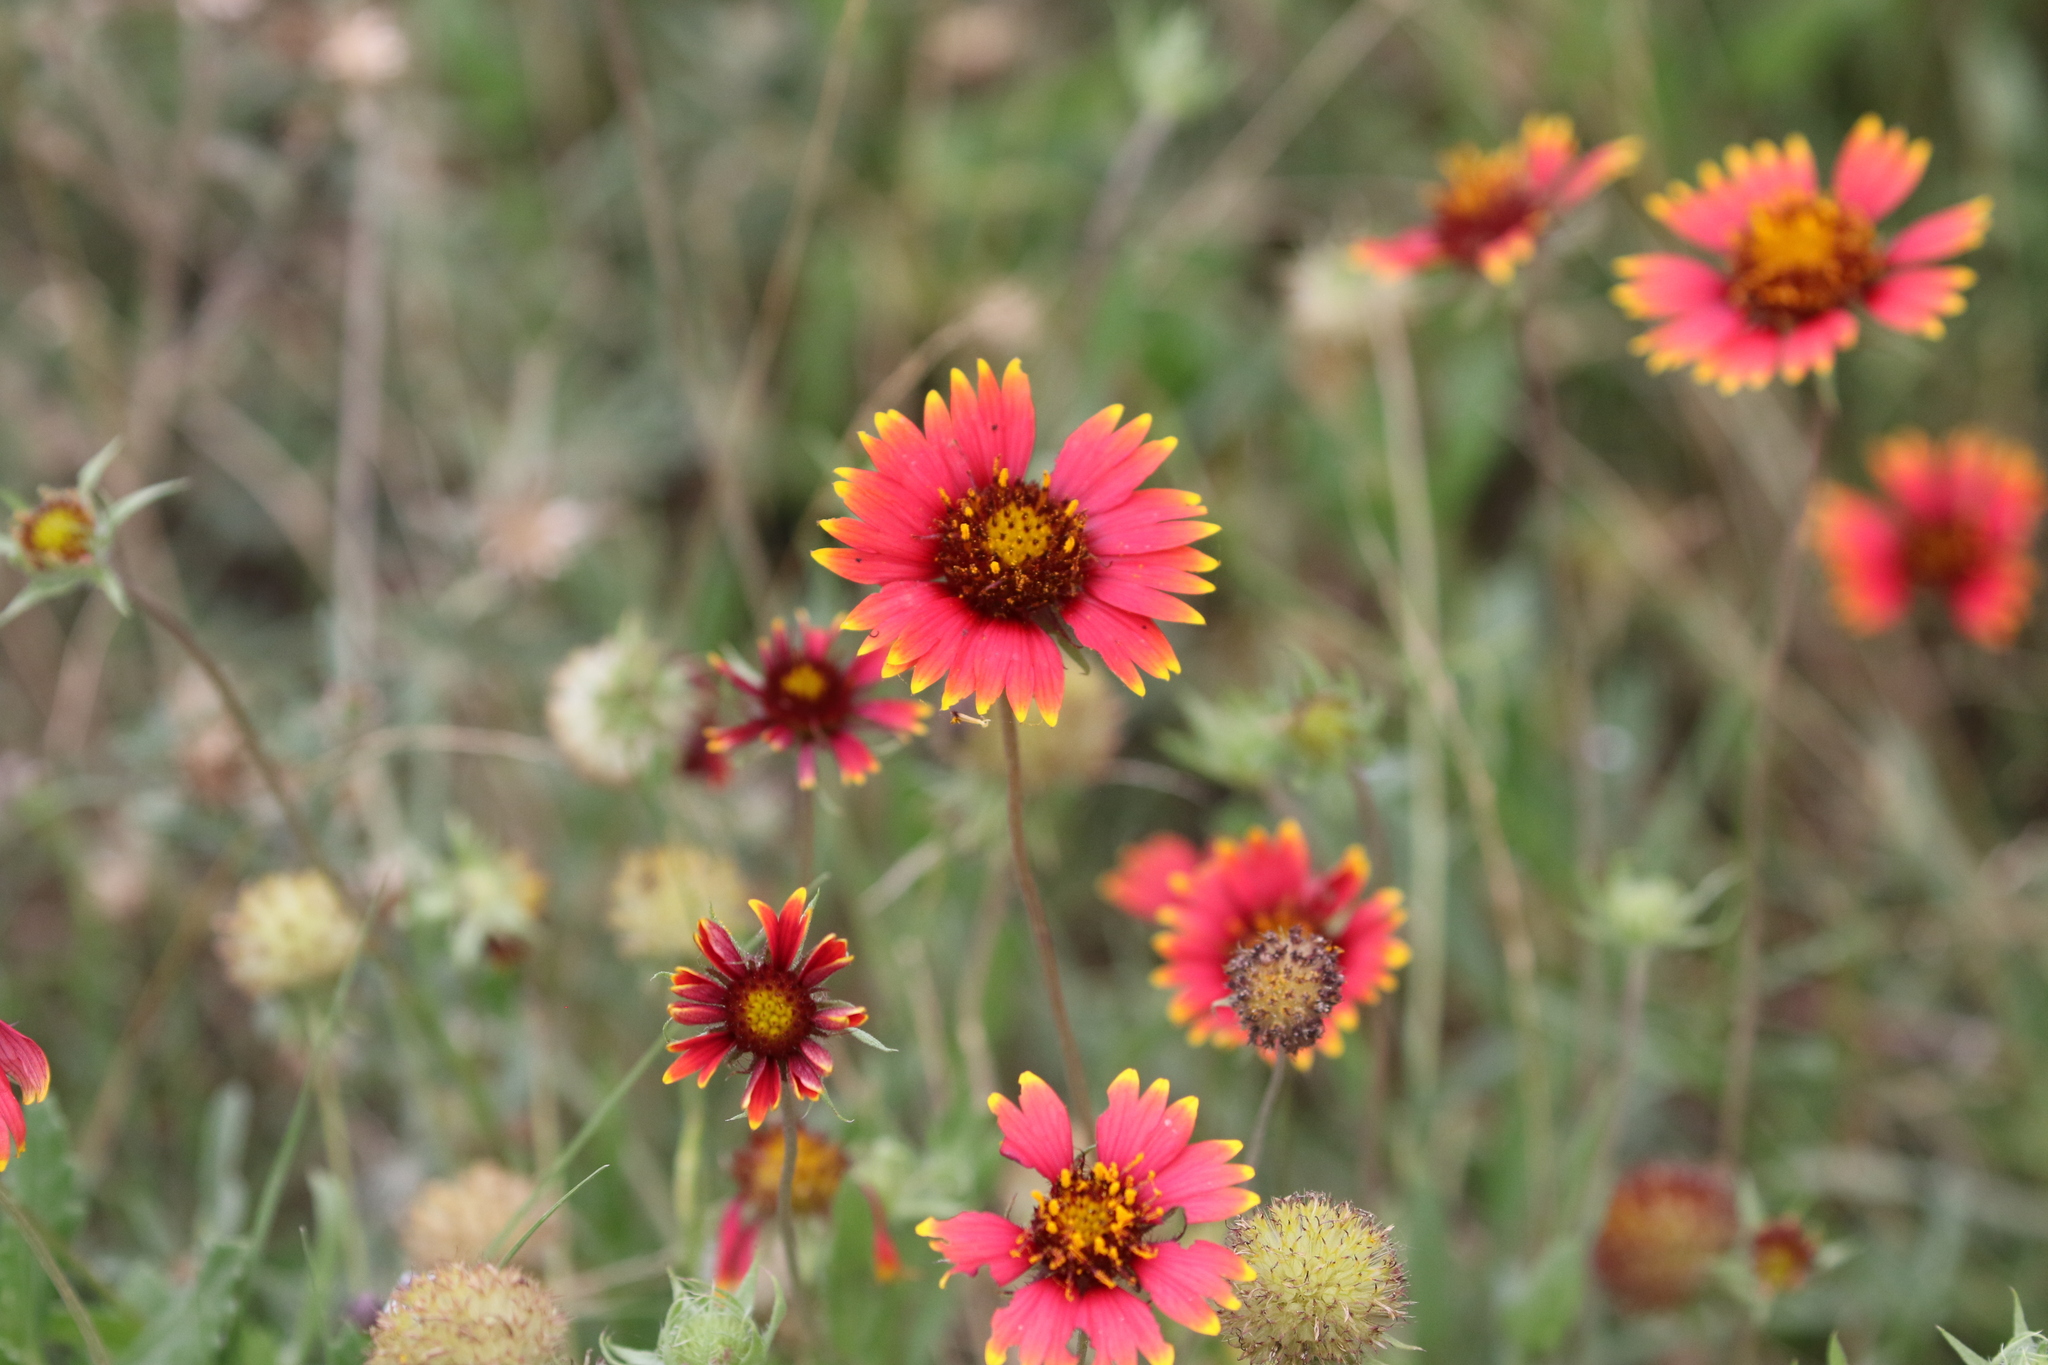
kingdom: Plantae
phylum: Tracheophyta
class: Magnoliopsida
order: Asterales
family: Asteraceae
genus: Gaillardia
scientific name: Gaillardia pulchella
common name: Firewheel
